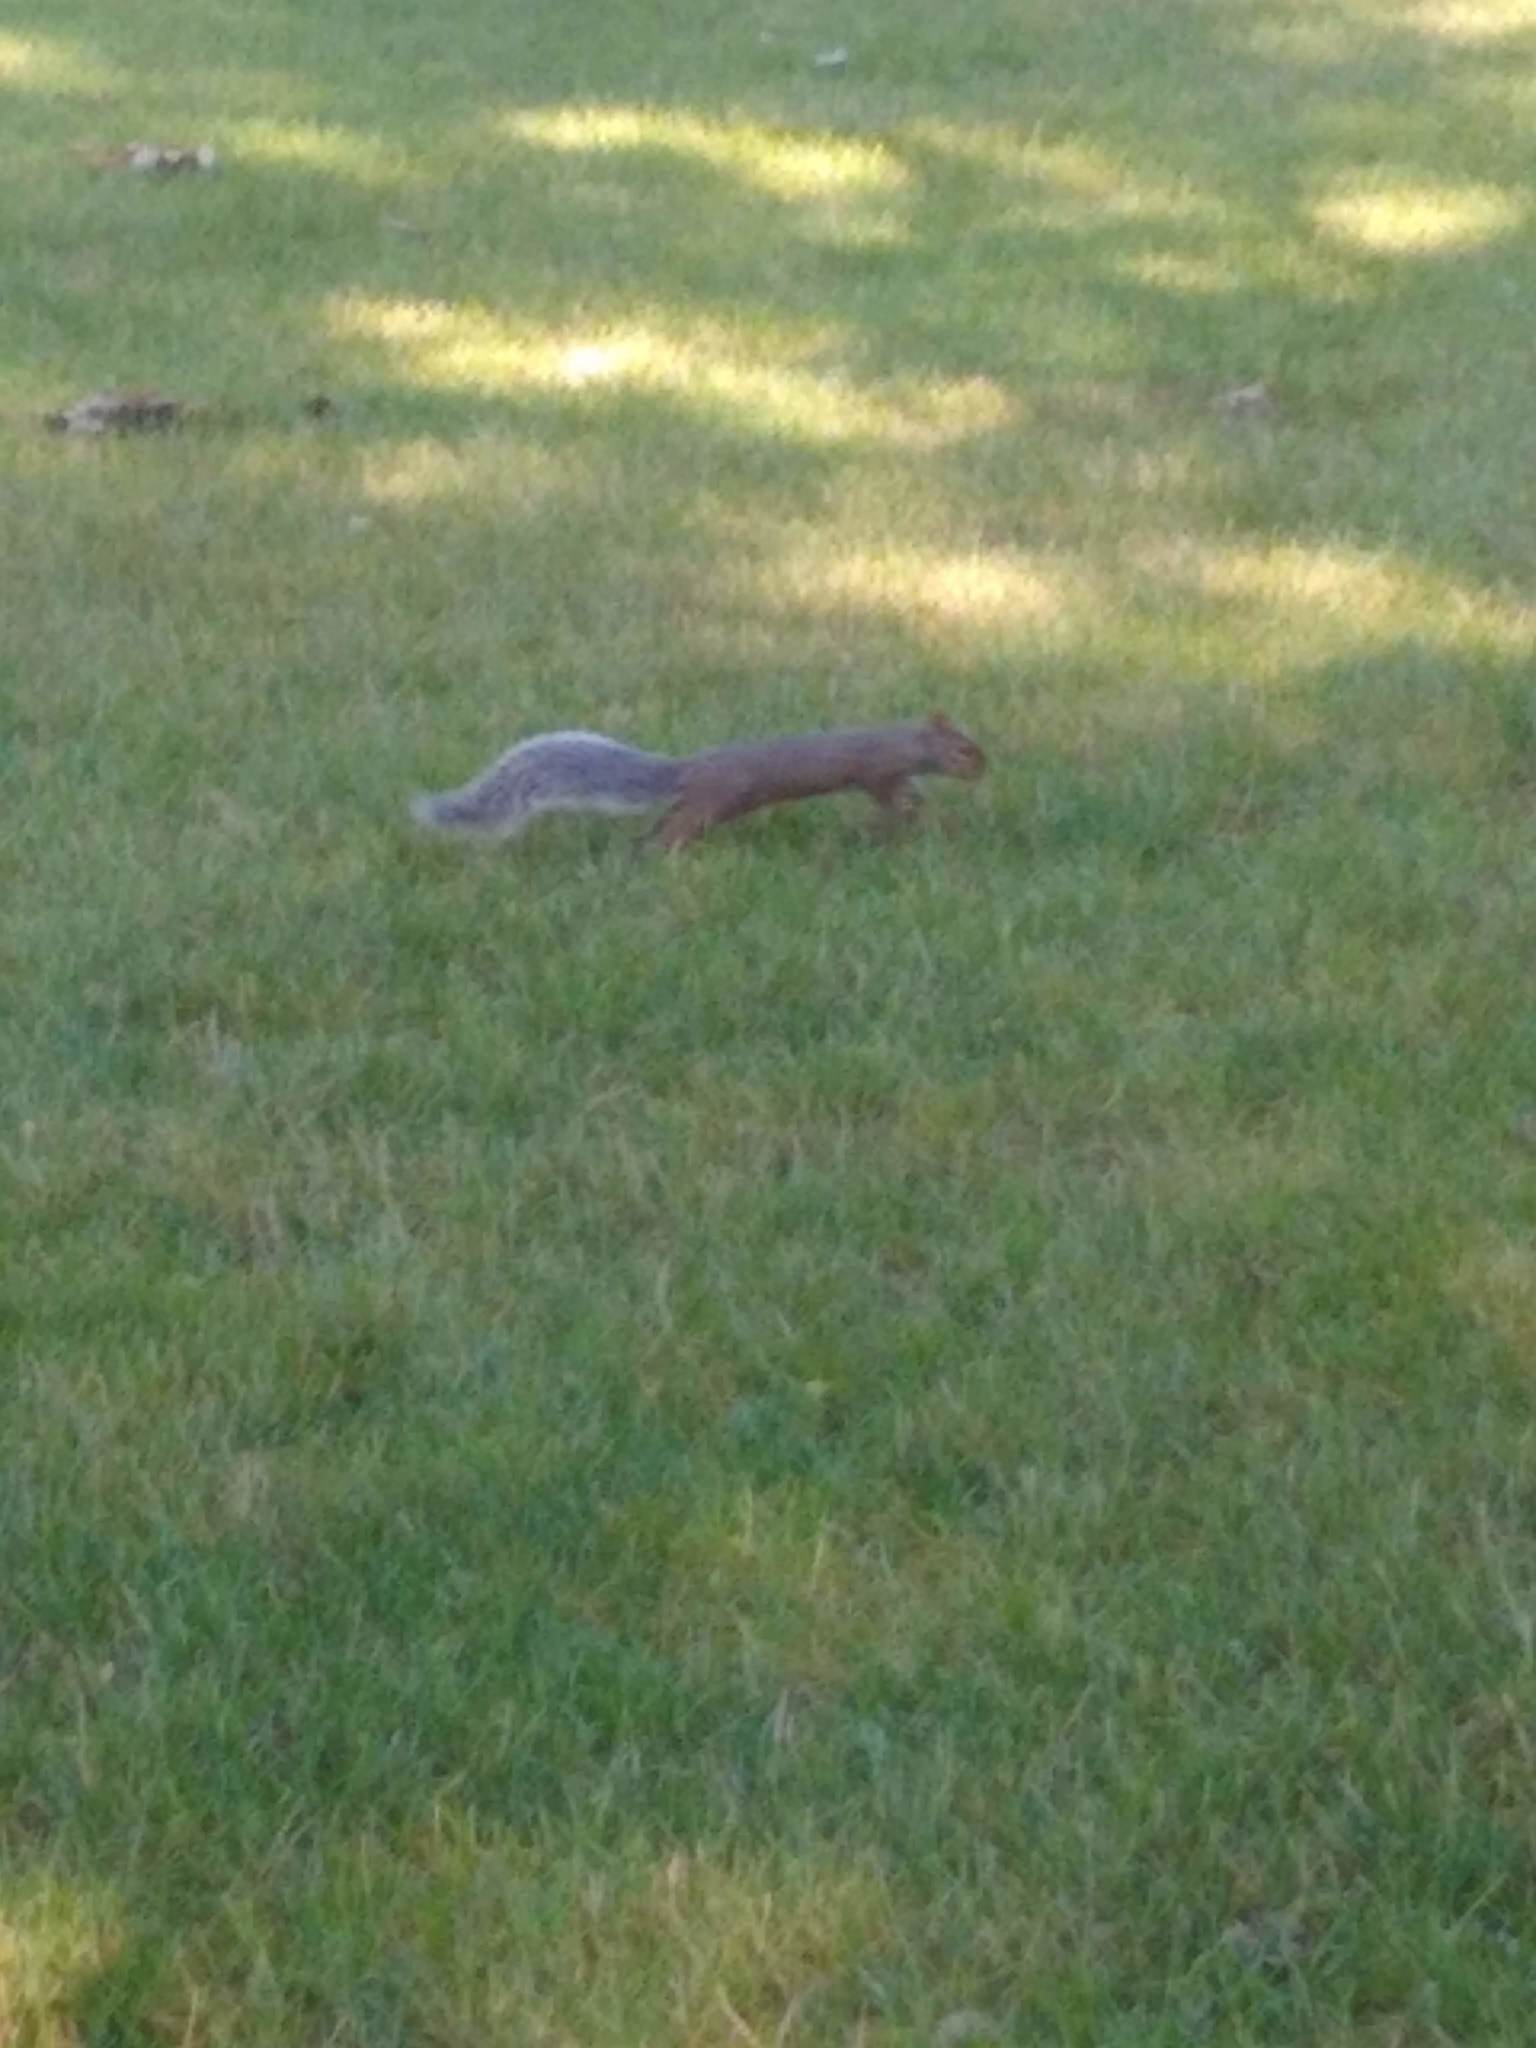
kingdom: Animalia
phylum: Chordata
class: Mammalia
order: Rodentia
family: Sciuridae
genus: Sciurus
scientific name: Sciurus carolinensis
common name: Eastern gray squirrel
